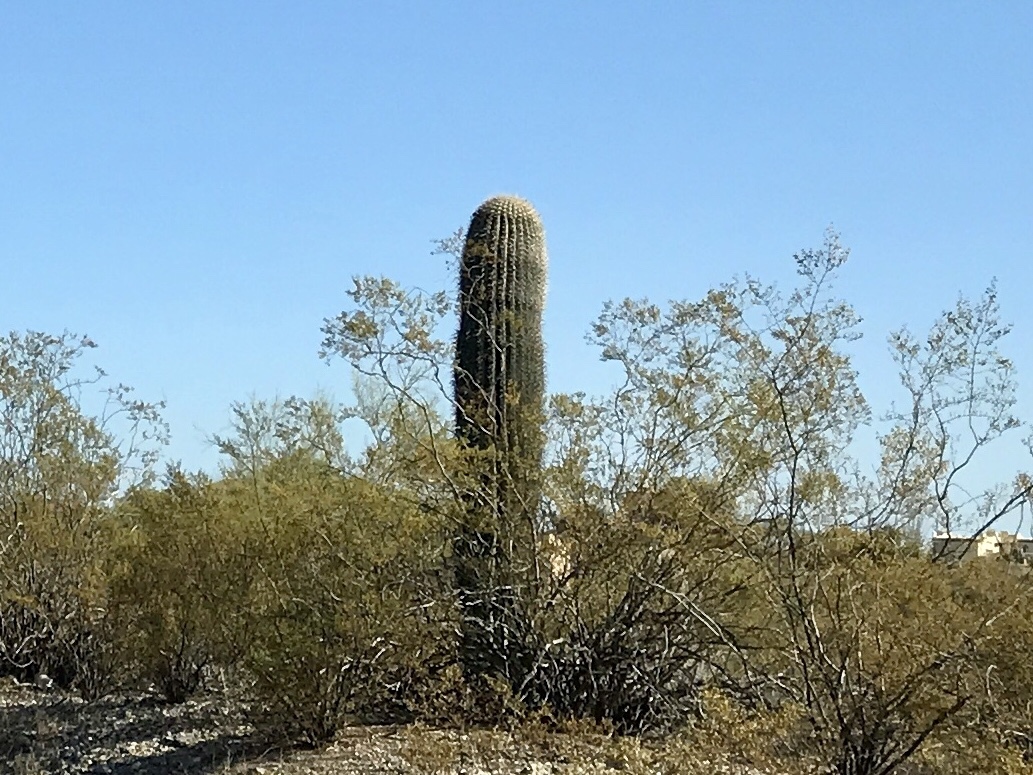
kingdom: Plantae
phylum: Tracheophyta
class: Magnoliopsida
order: Caryophyllales
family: Cactaceae
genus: Carnegiea
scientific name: Carnegiea gigantea
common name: Saguaro
